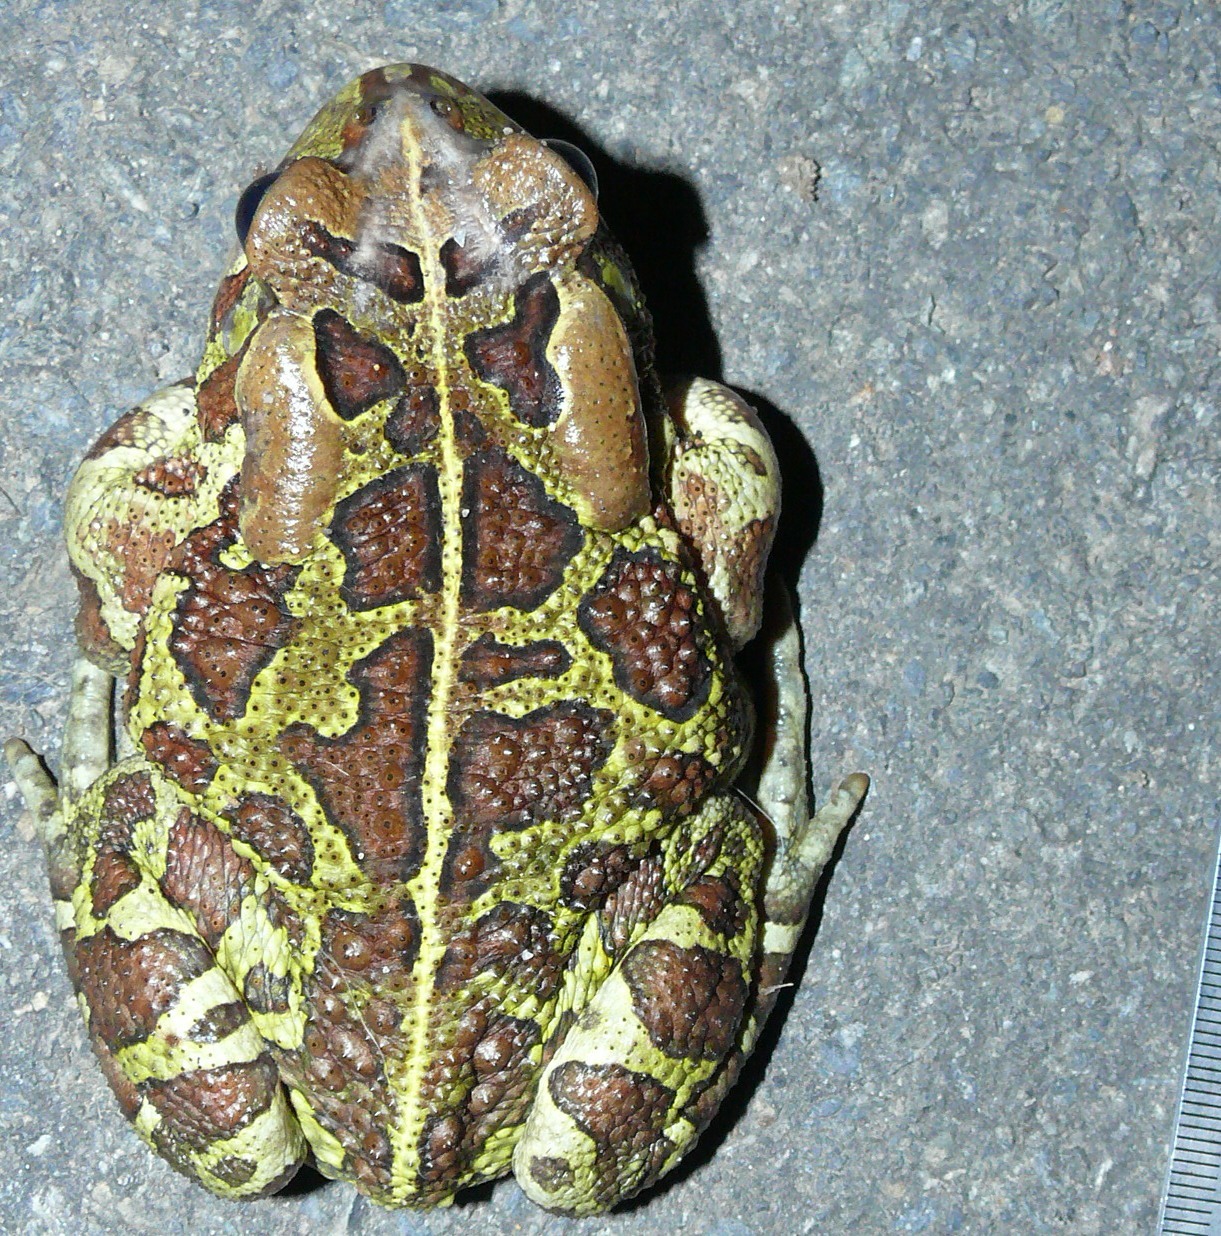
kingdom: Animalia
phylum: Chordata
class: Amphibia
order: Anura
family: Bufonidae
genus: Sclerophrys
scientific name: Sclerophrys pantherina
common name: Panther toad
